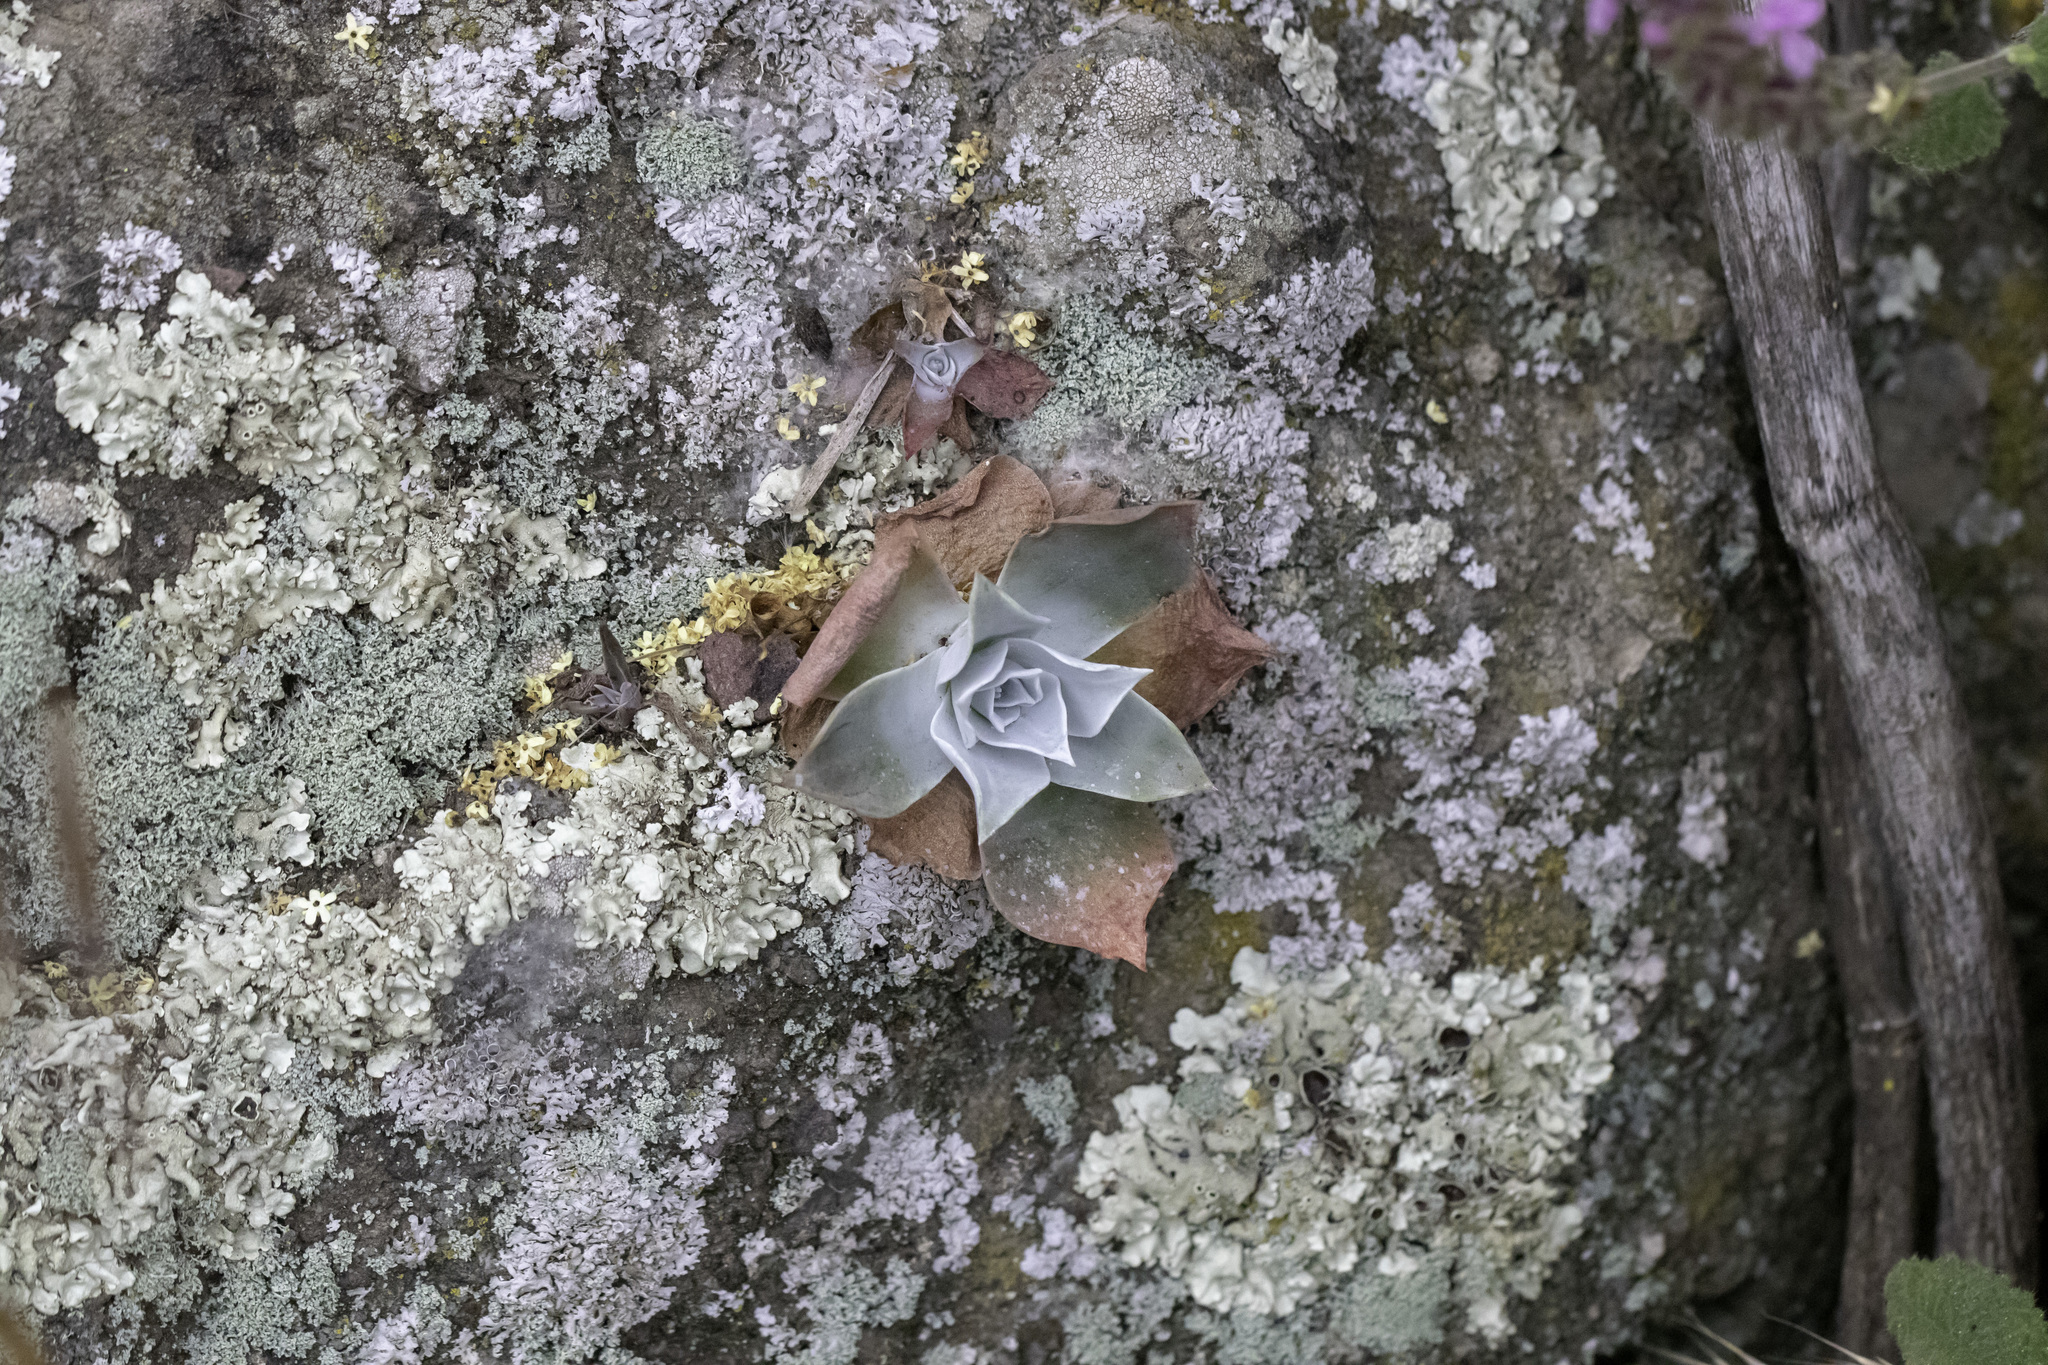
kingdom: Plantae
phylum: Tracheophyta
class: Magnoliopsida
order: Saxifragales
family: Crassulaceae
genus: Dudleya
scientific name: Dudleya pulverulenta
